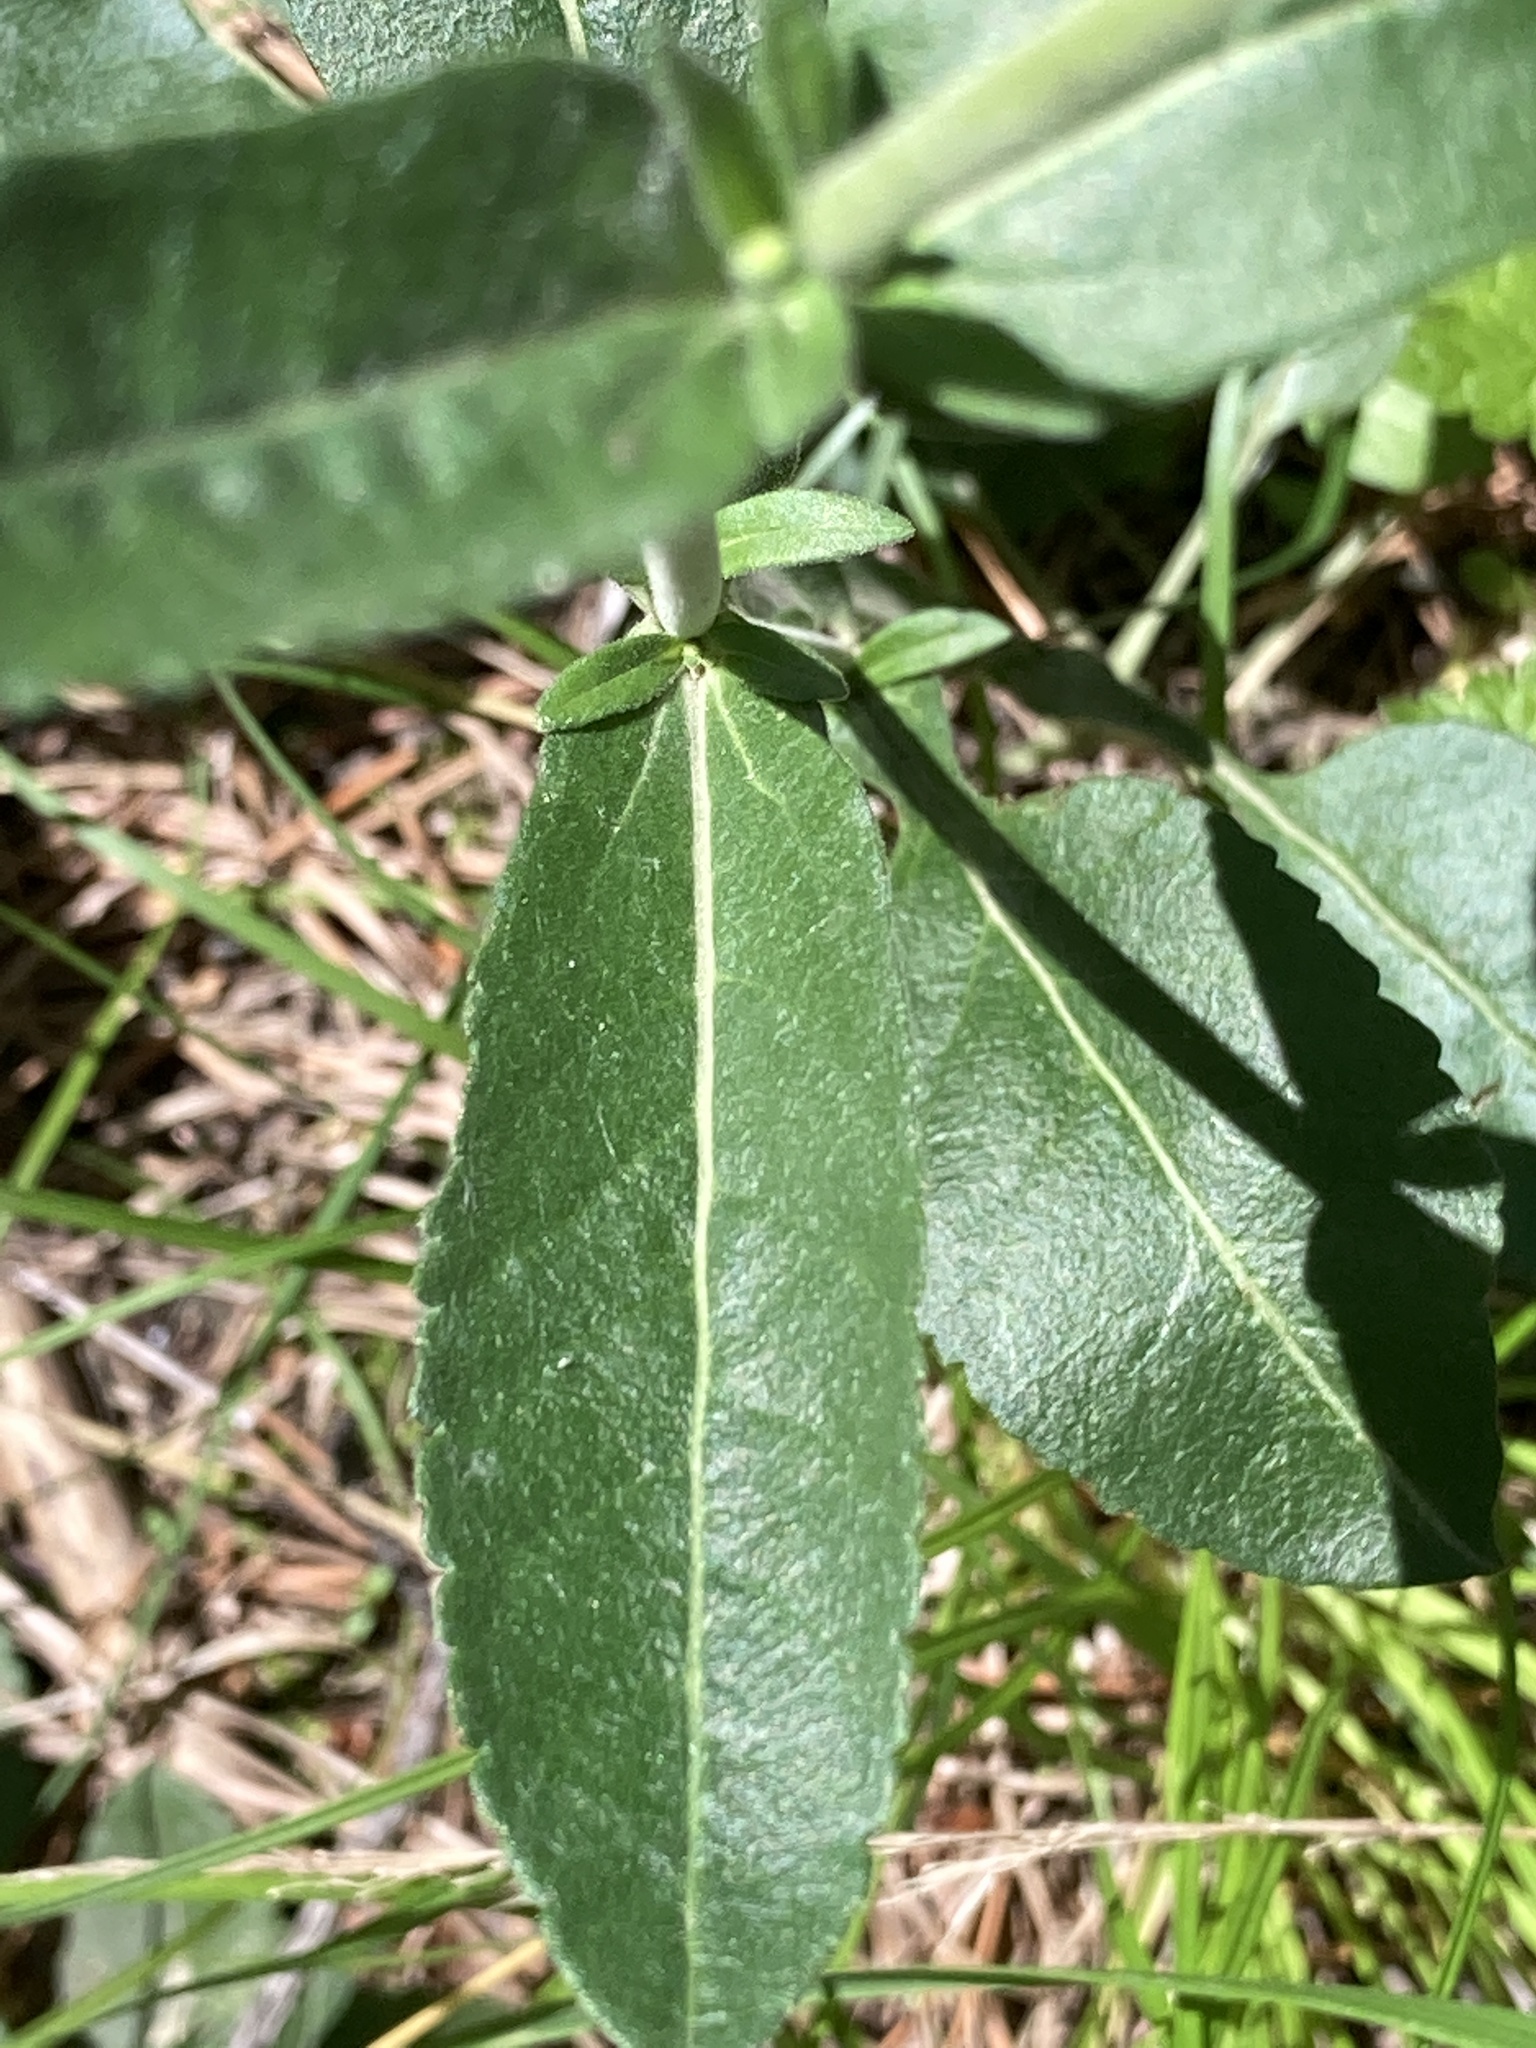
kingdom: Plantae
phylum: Tracheophyta
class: Magnoliopsida
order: Lamiales
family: Plantaginaceae
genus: Veronica
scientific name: Veronica spicata
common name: Spiked speedwell
